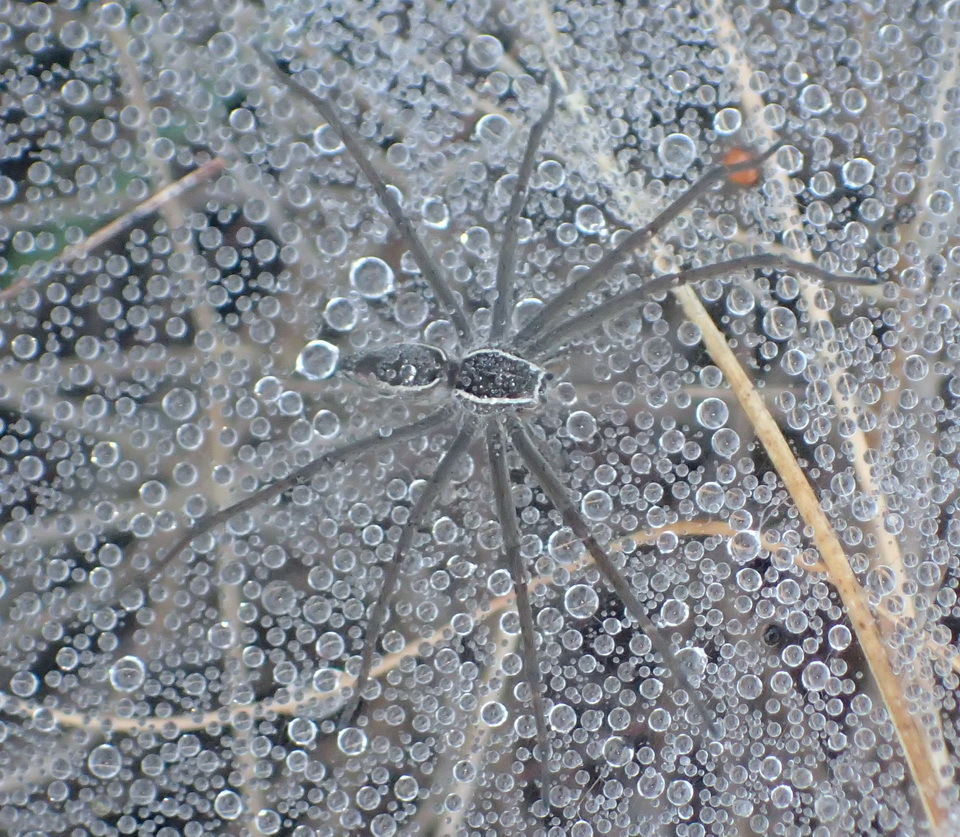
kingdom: Animalia
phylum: Arthropoda
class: Arachnida
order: Araneae
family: Pisauridae
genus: Euprosthenopsis
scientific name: Euprosthenopsis pulchella
